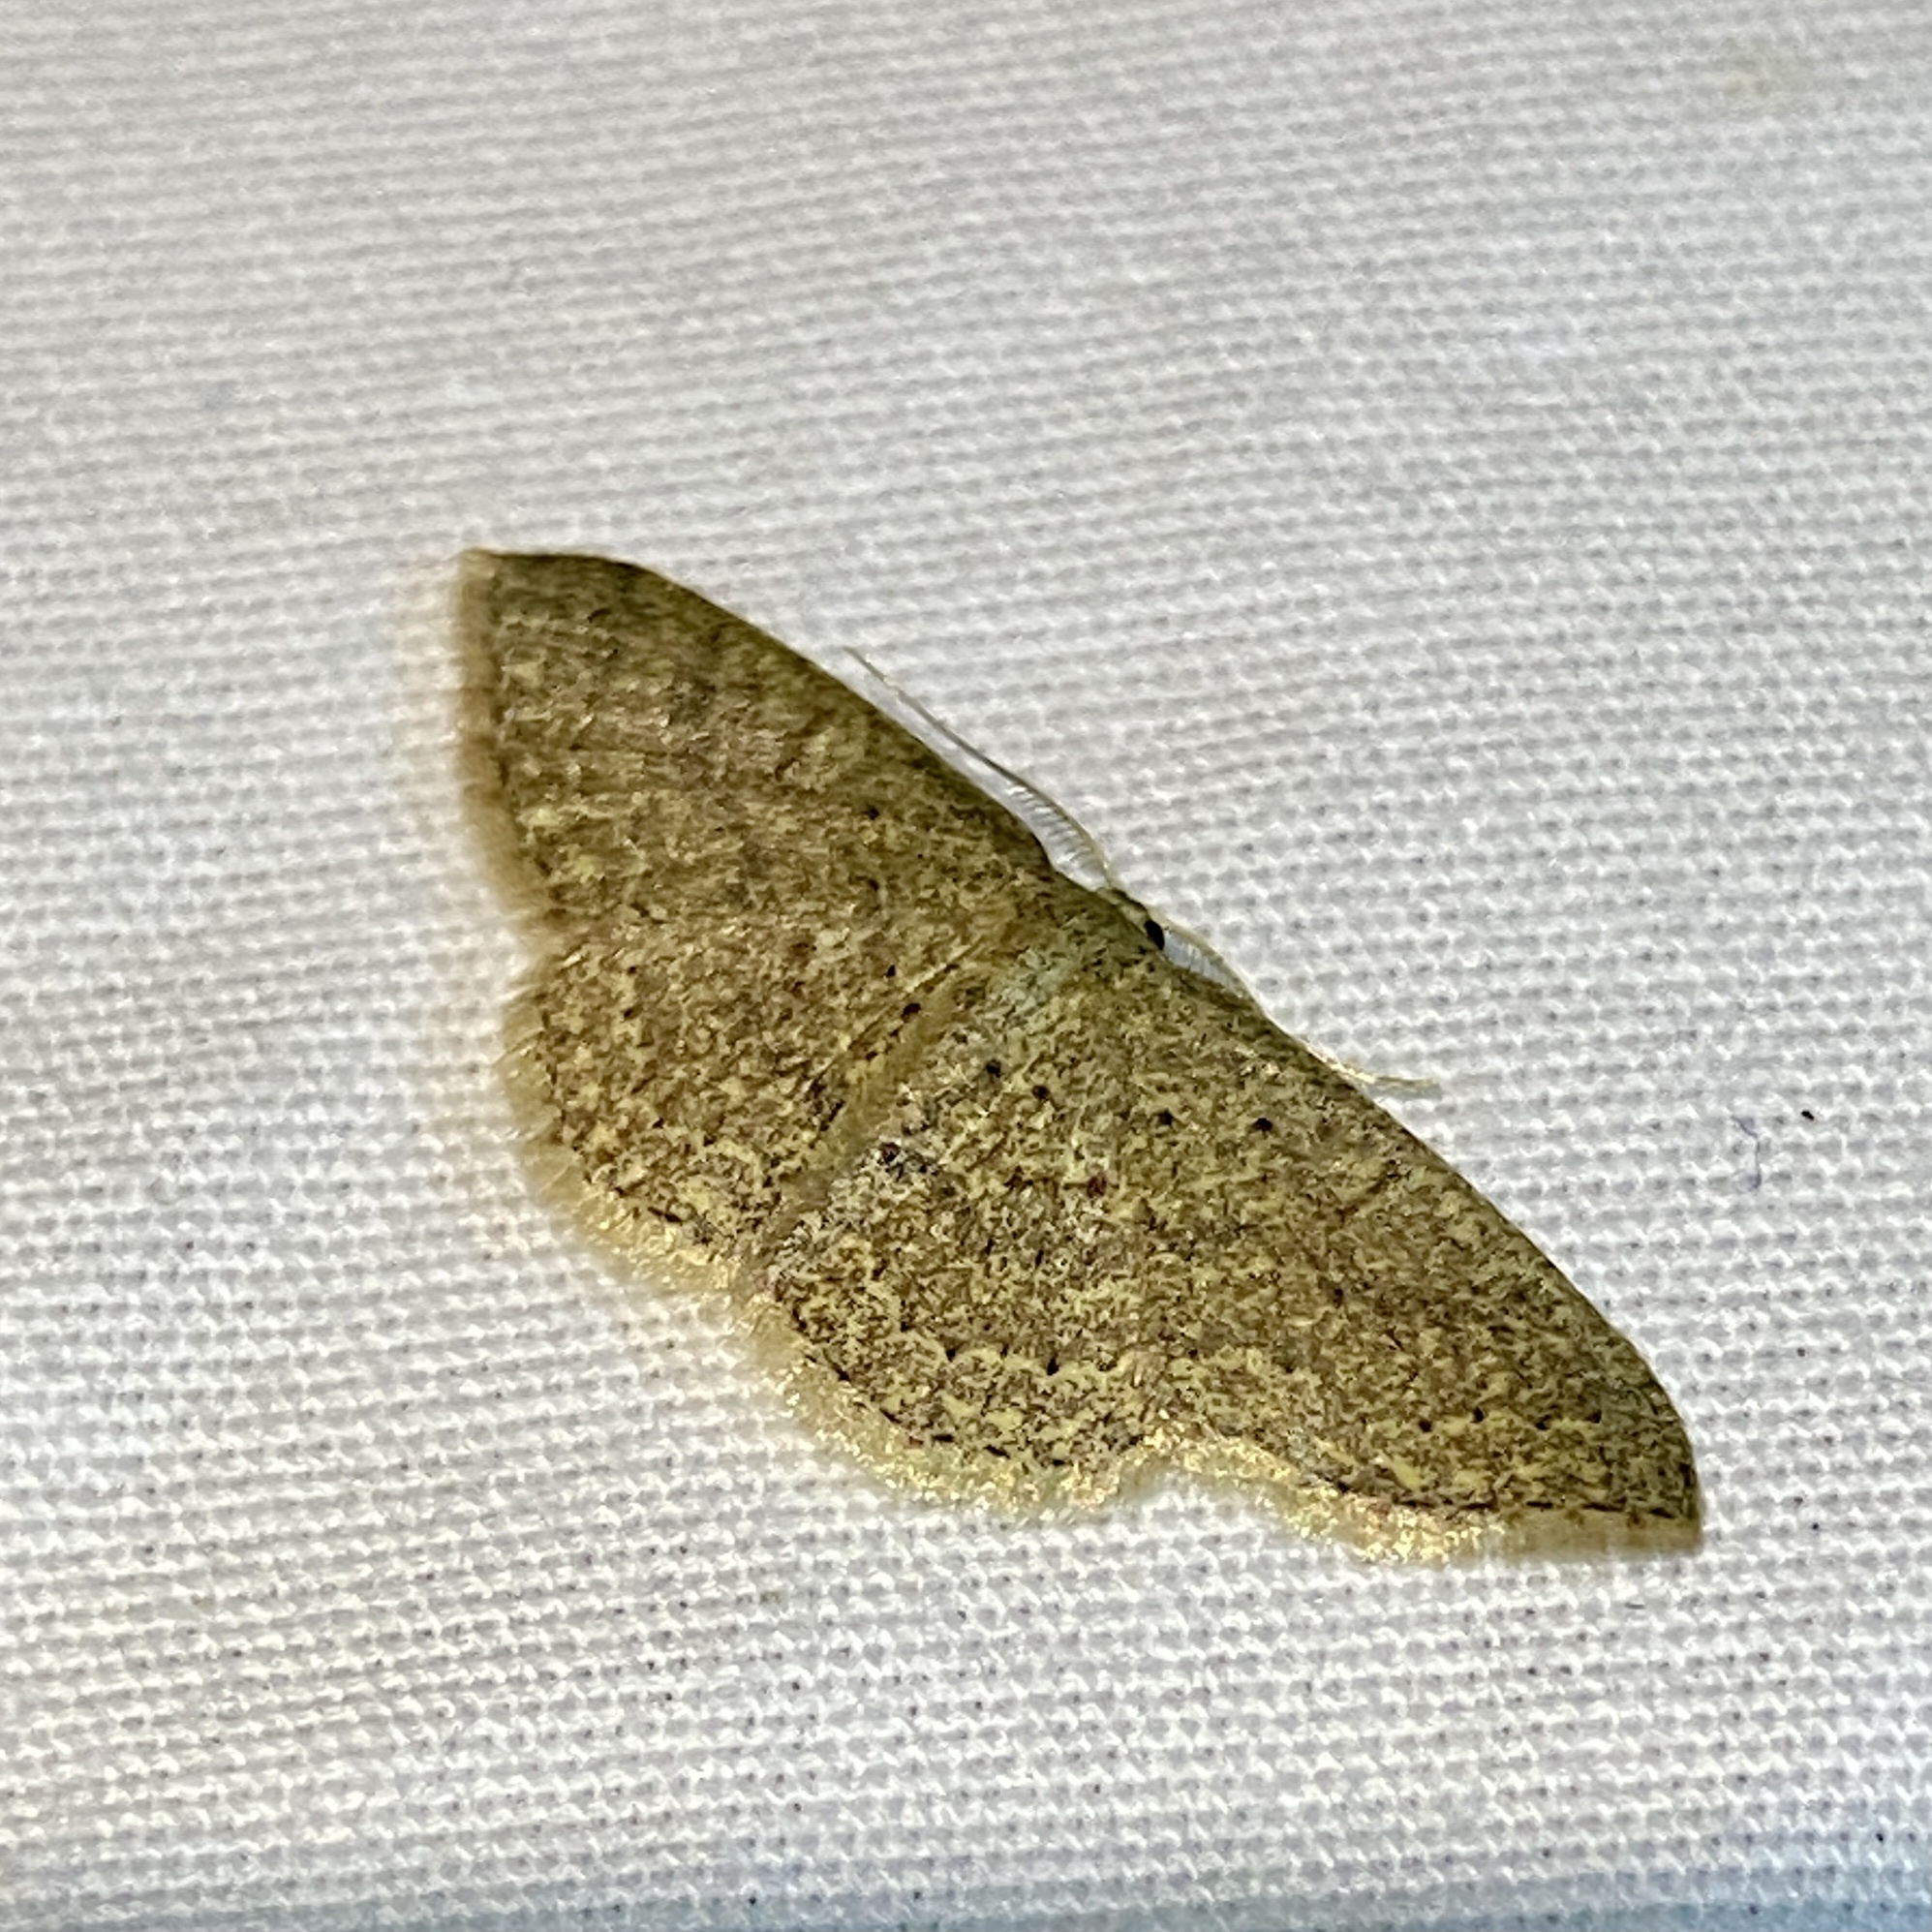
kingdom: Animalia
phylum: Arthropoda
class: Insecta
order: Lepidoptera
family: Geometridae
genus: Pleuroprucha
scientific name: Pleuroprucha insulsaria
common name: Common tan wave
